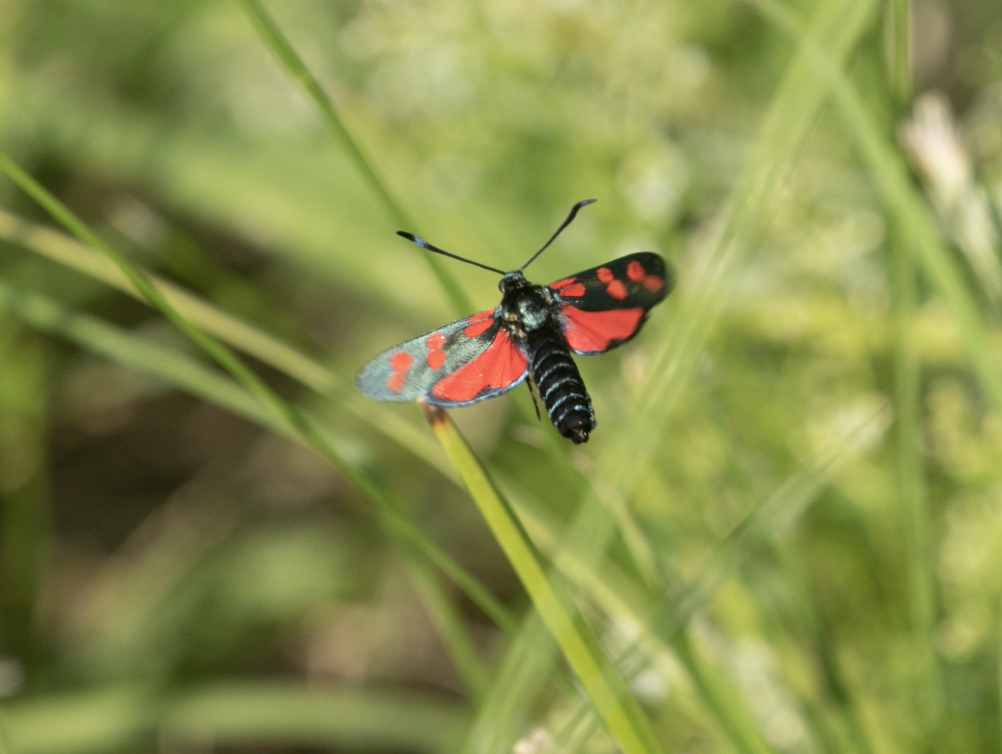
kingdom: Animalia
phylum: Arthropoda
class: Insecta
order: Lepidoptera
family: Zygaenidae
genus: Zygaena
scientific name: Zygaena filipendulae
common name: Six-spot burnet
